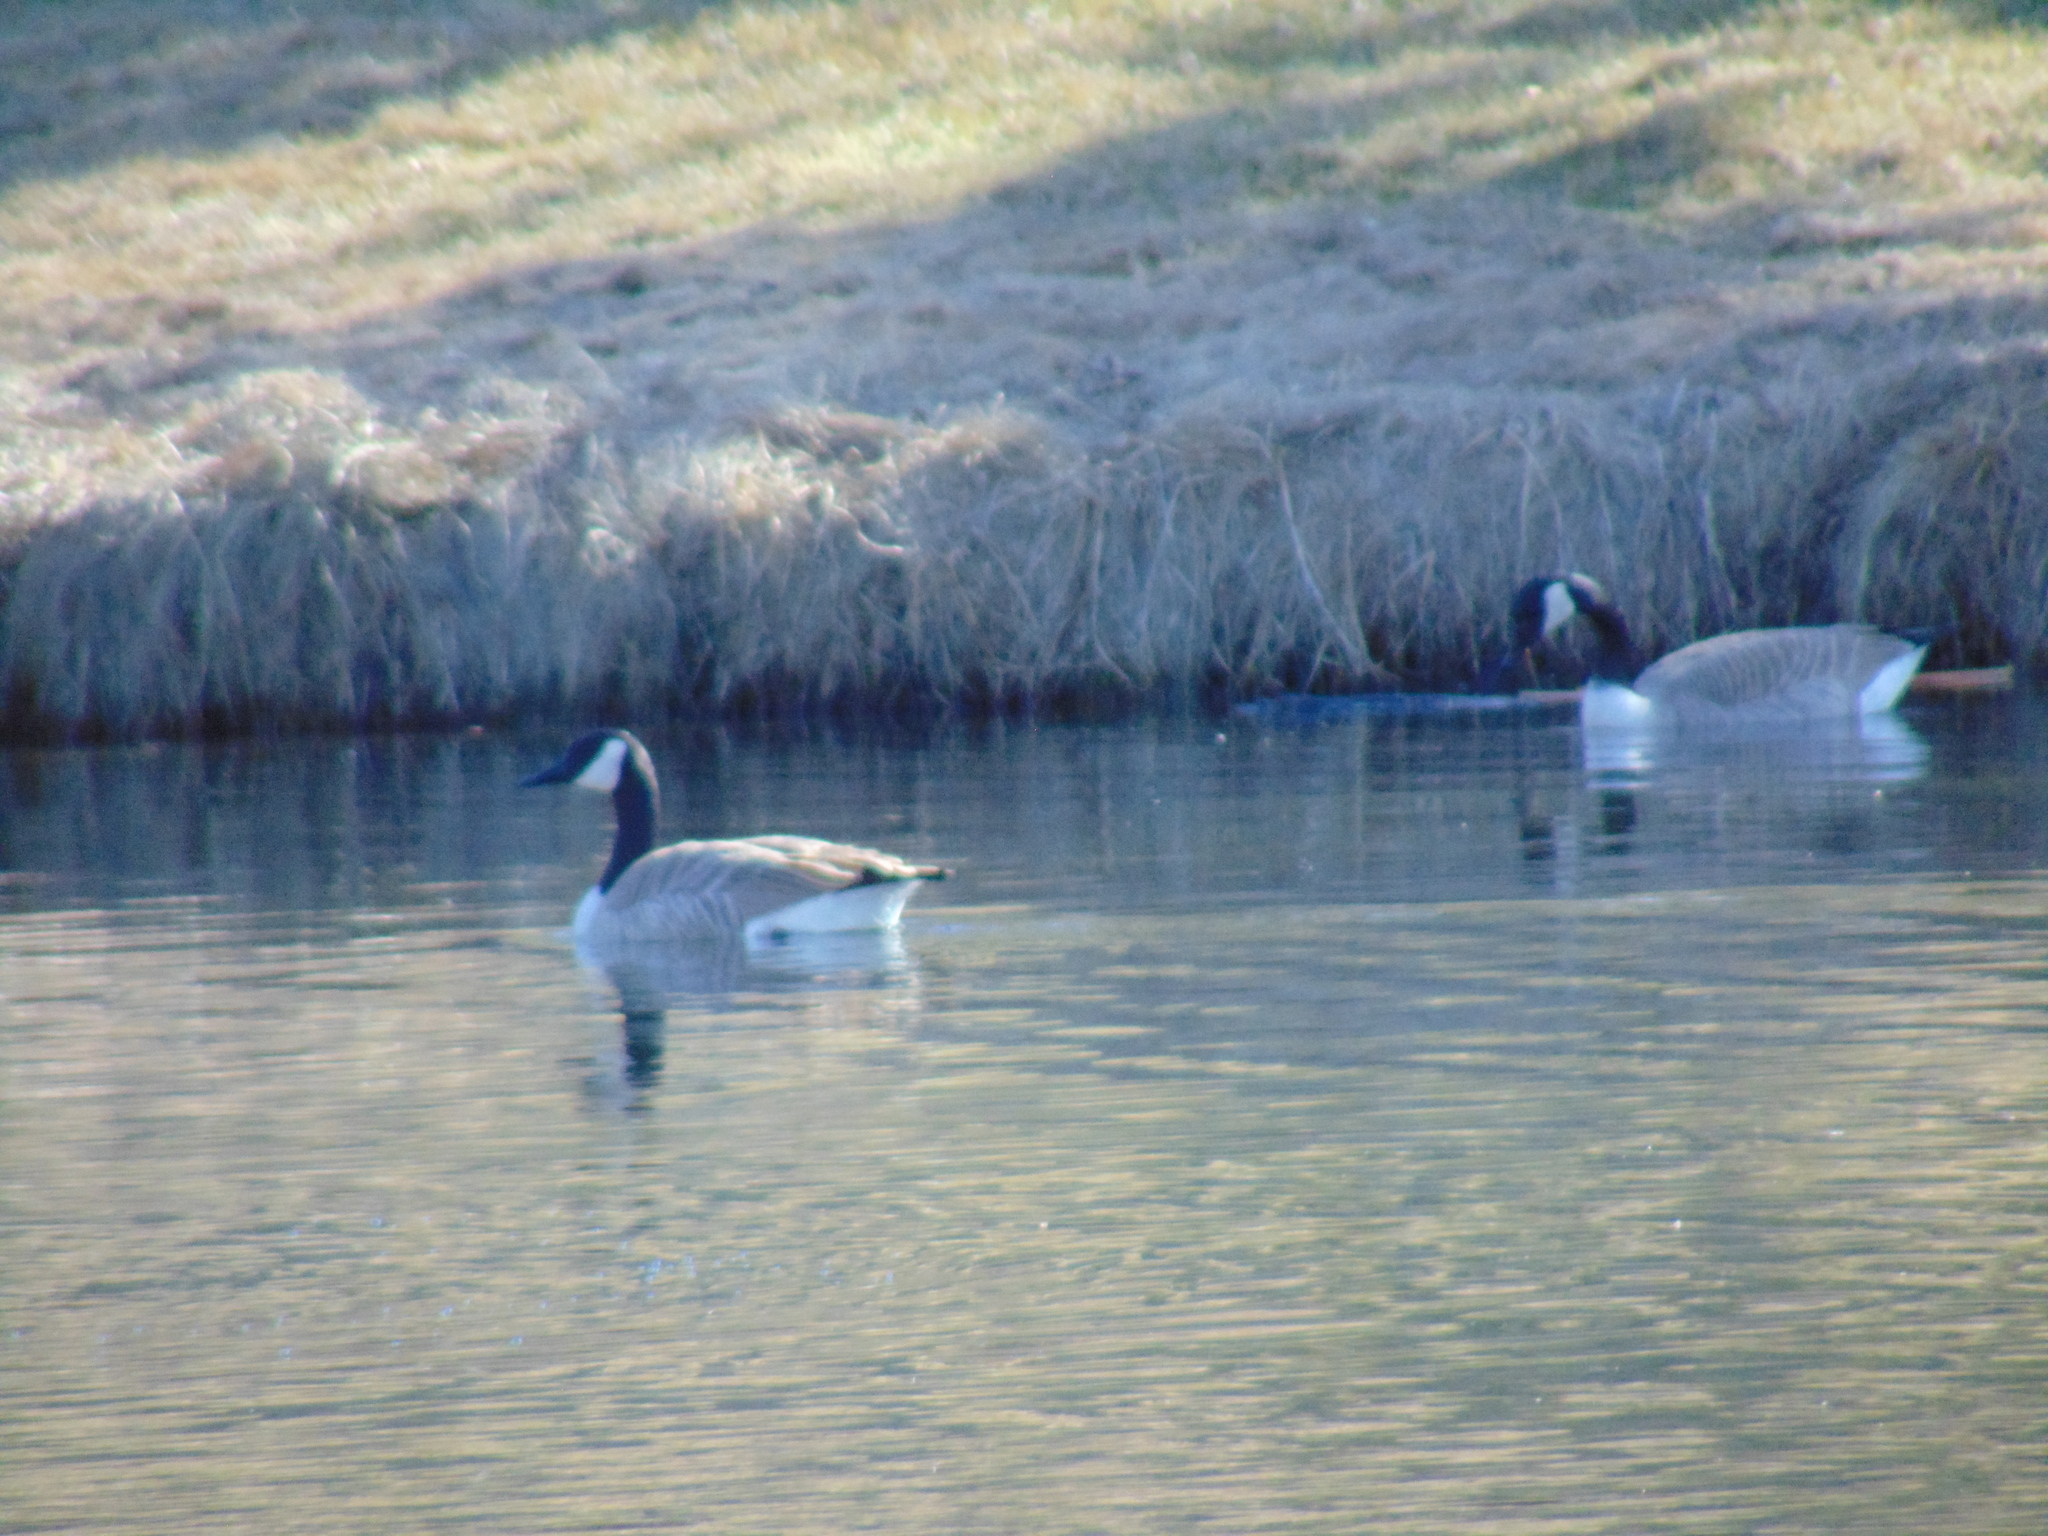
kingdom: Animalia
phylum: Chordata
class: Aves
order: Anseriformes
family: Anatidae
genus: Branta
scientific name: Branta canadensis
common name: Canada goose
